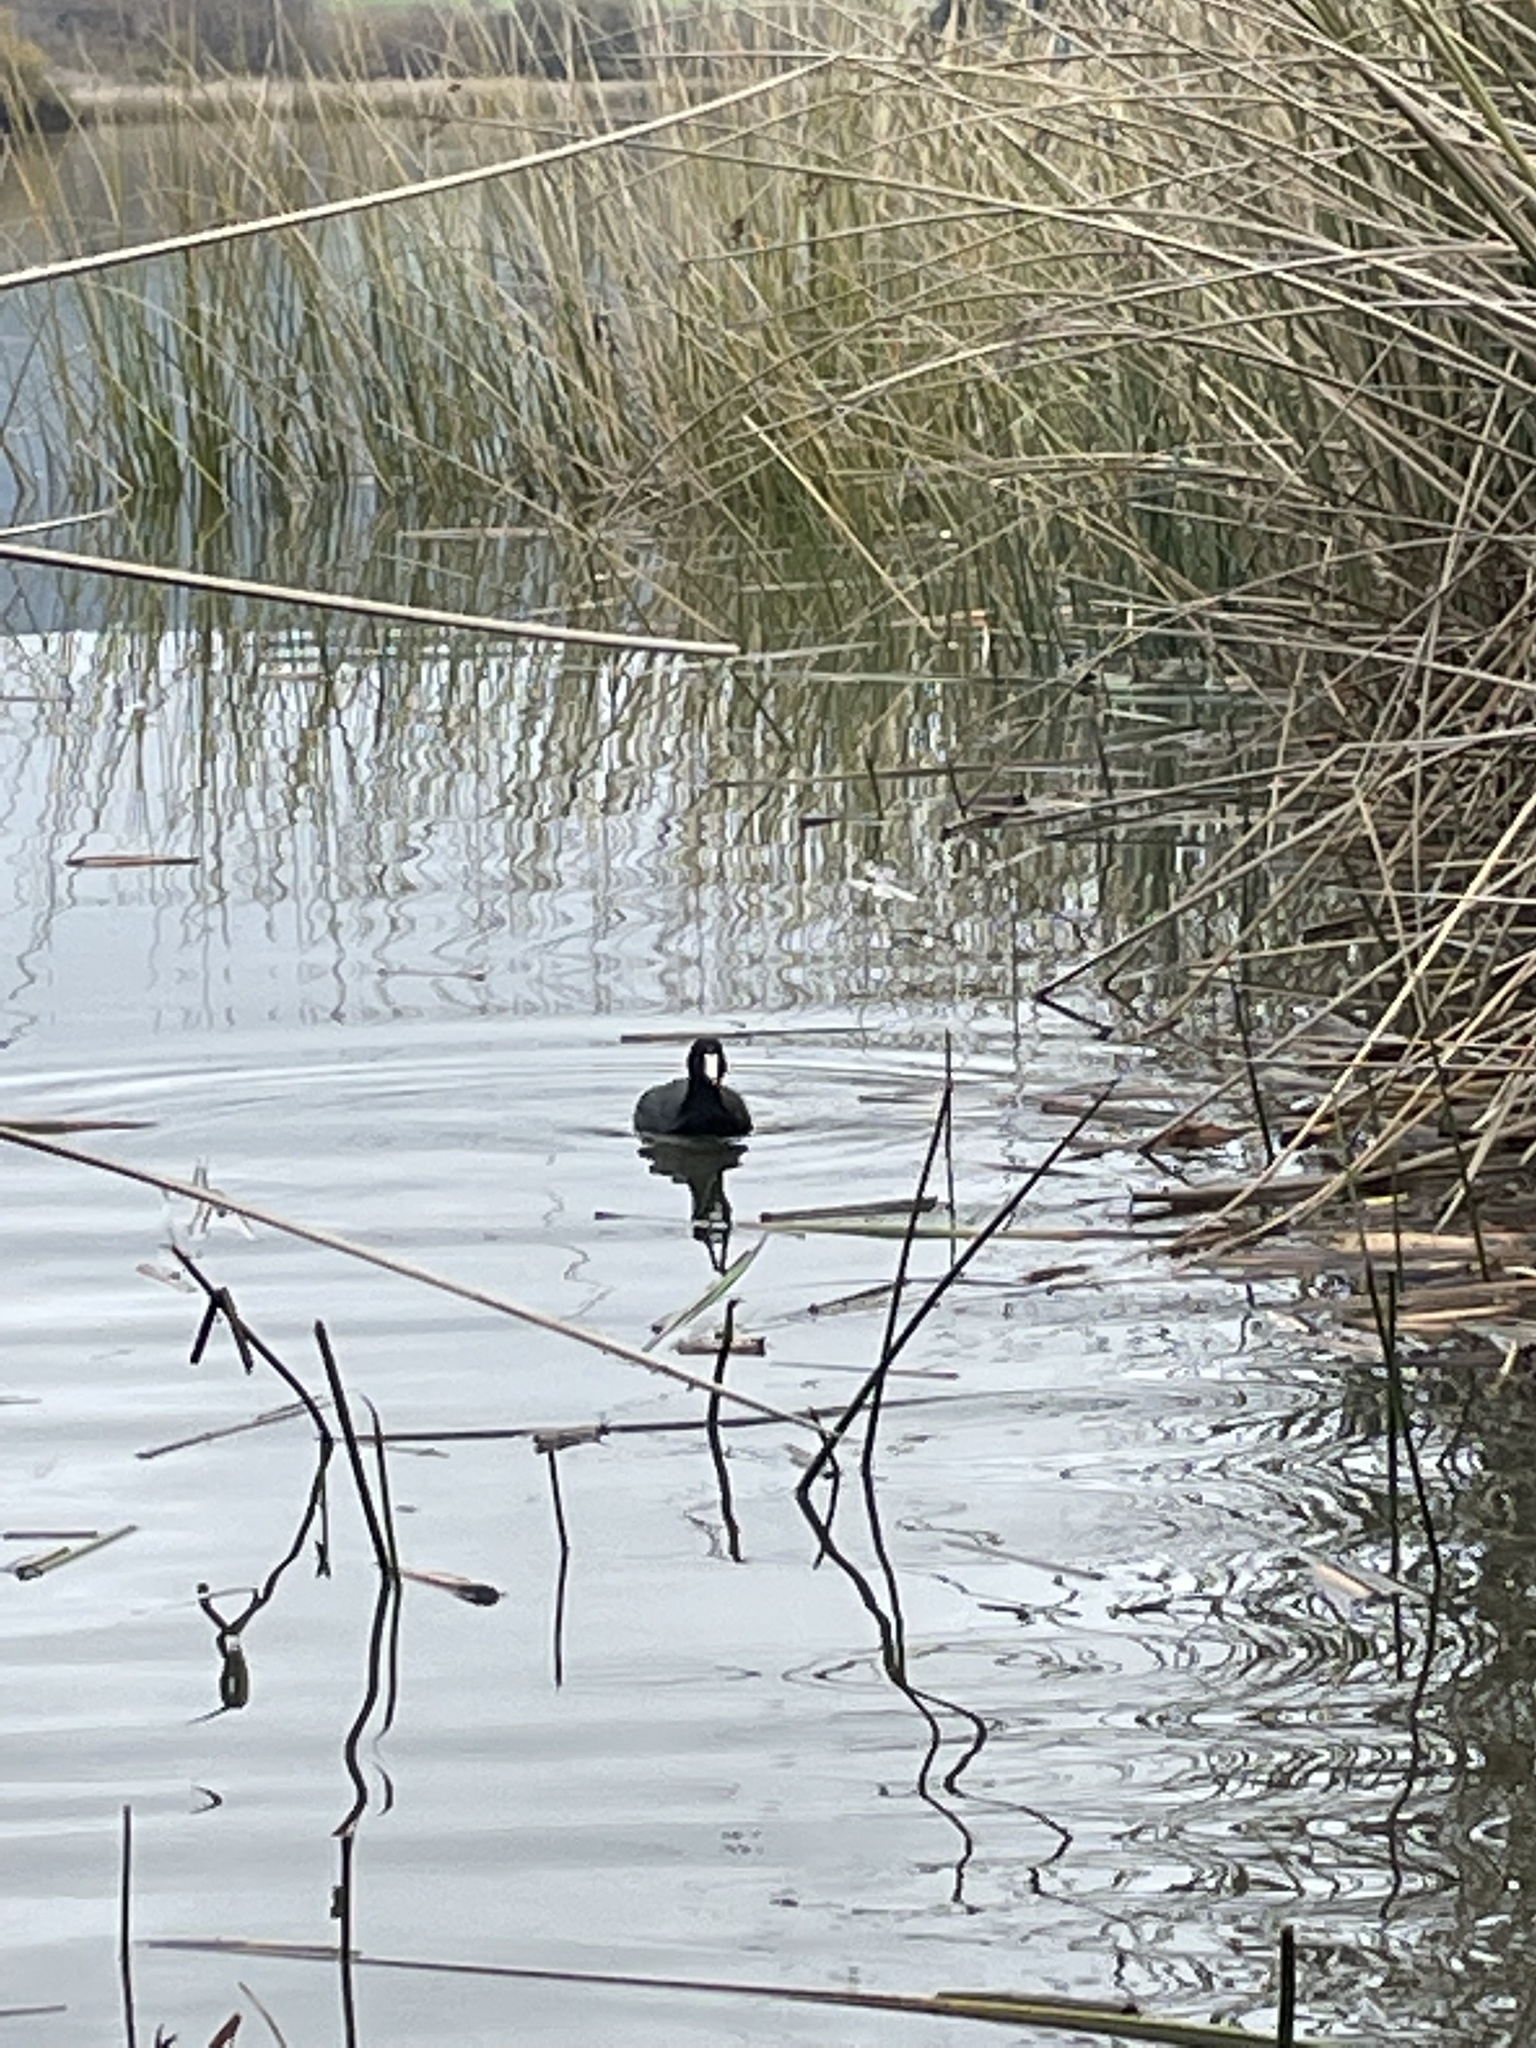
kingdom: Animalia
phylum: Chordata
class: Aves
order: Gruiformes
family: Rallidae
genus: Fulica
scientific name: Fulica americana
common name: American coot
